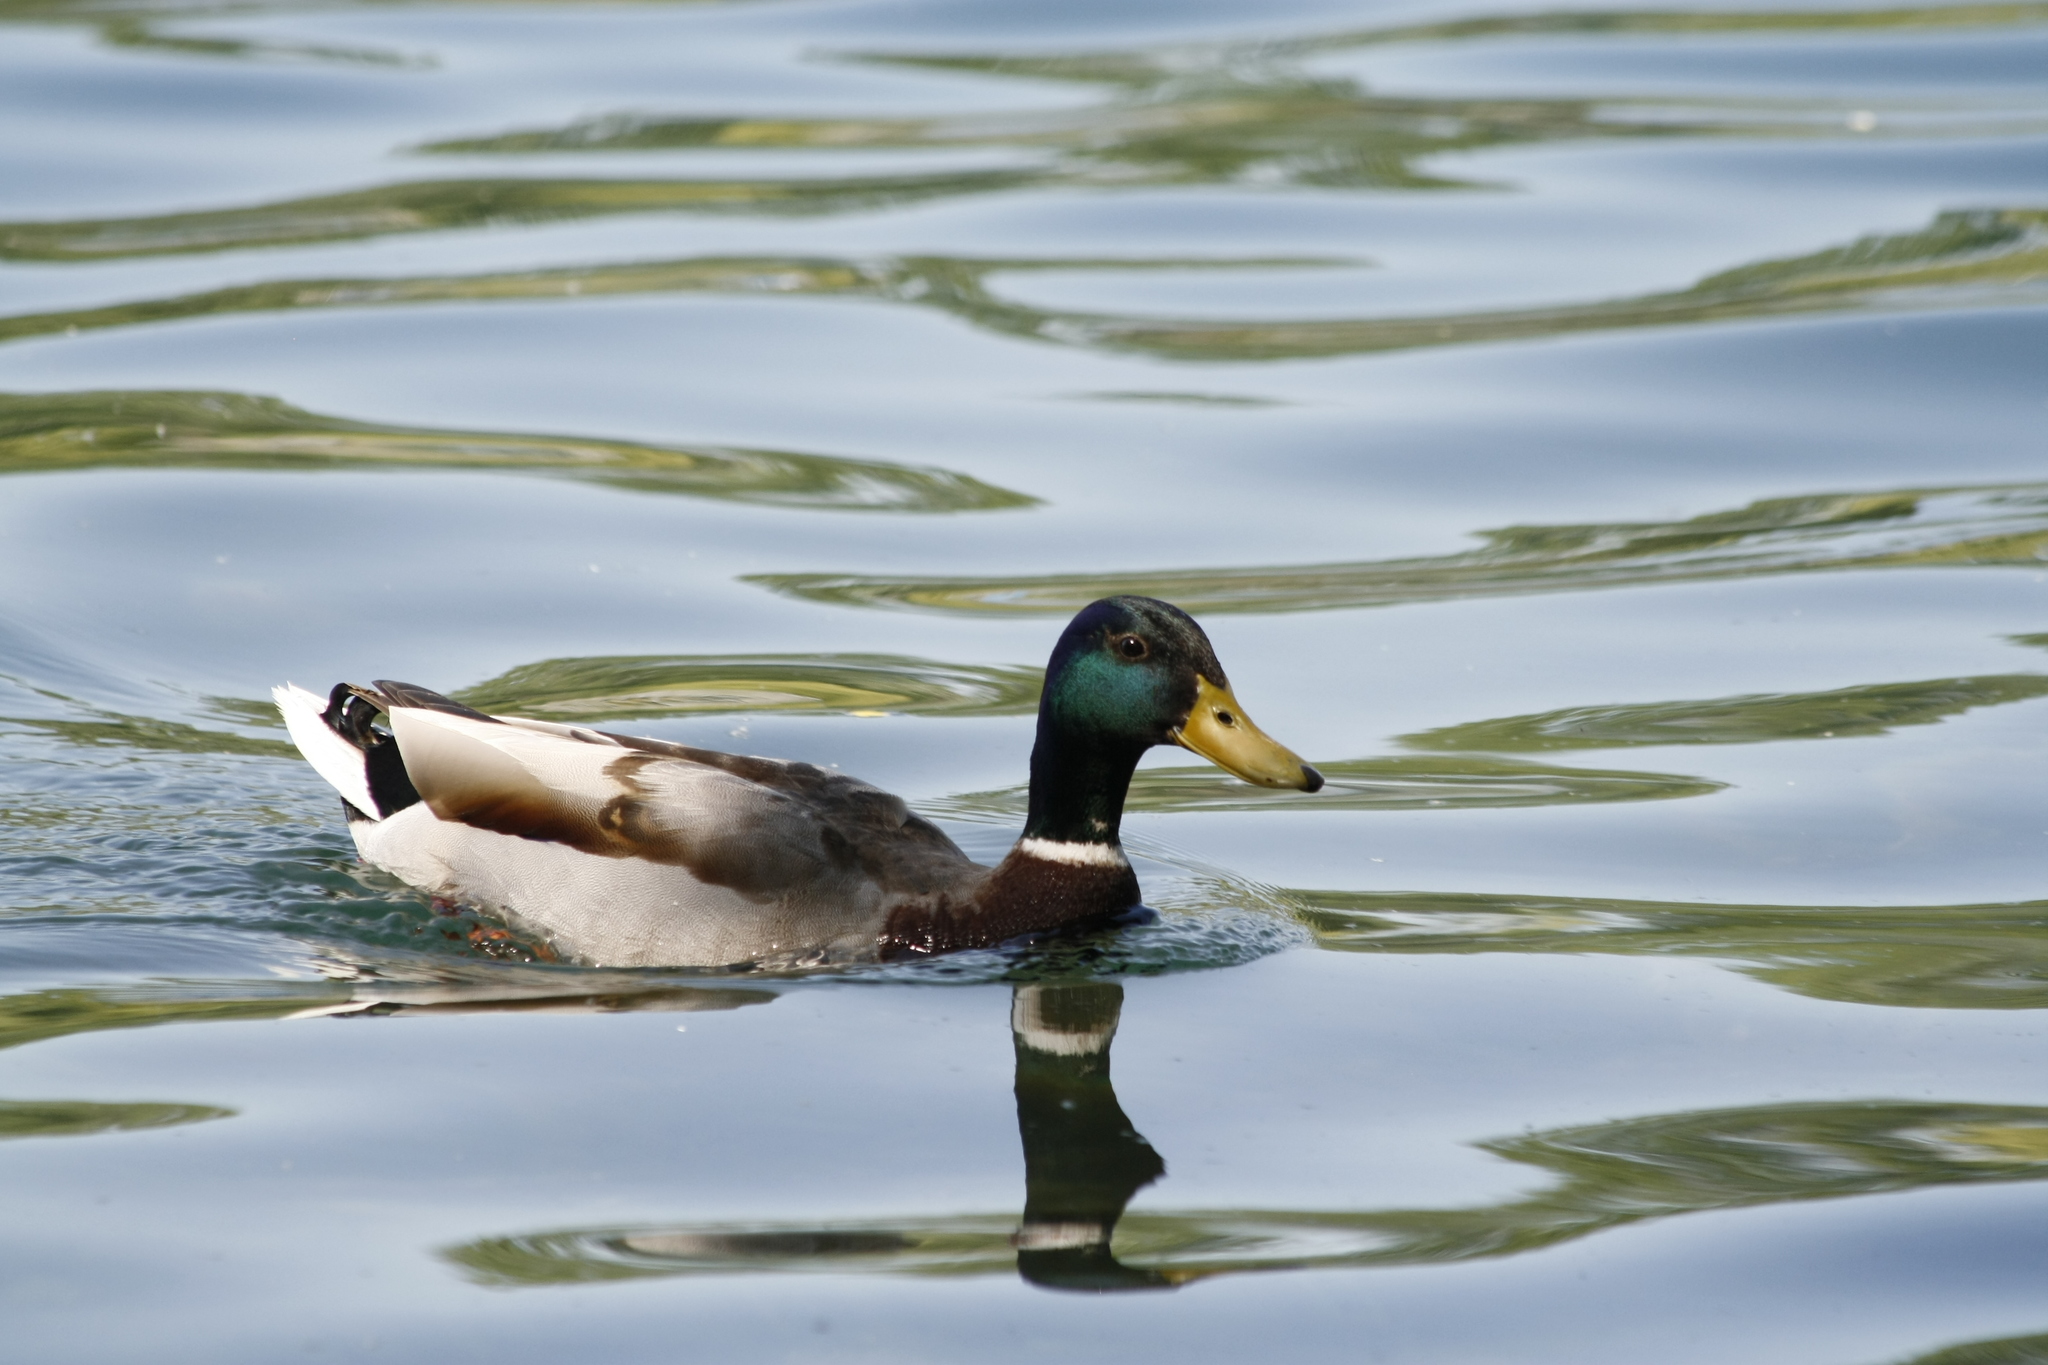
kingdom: Animalia
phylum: Chordata
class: Aves
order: Anseriformes
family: Anatidae
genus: Anas
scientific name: Anas platyrhynchos
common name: Mallard
